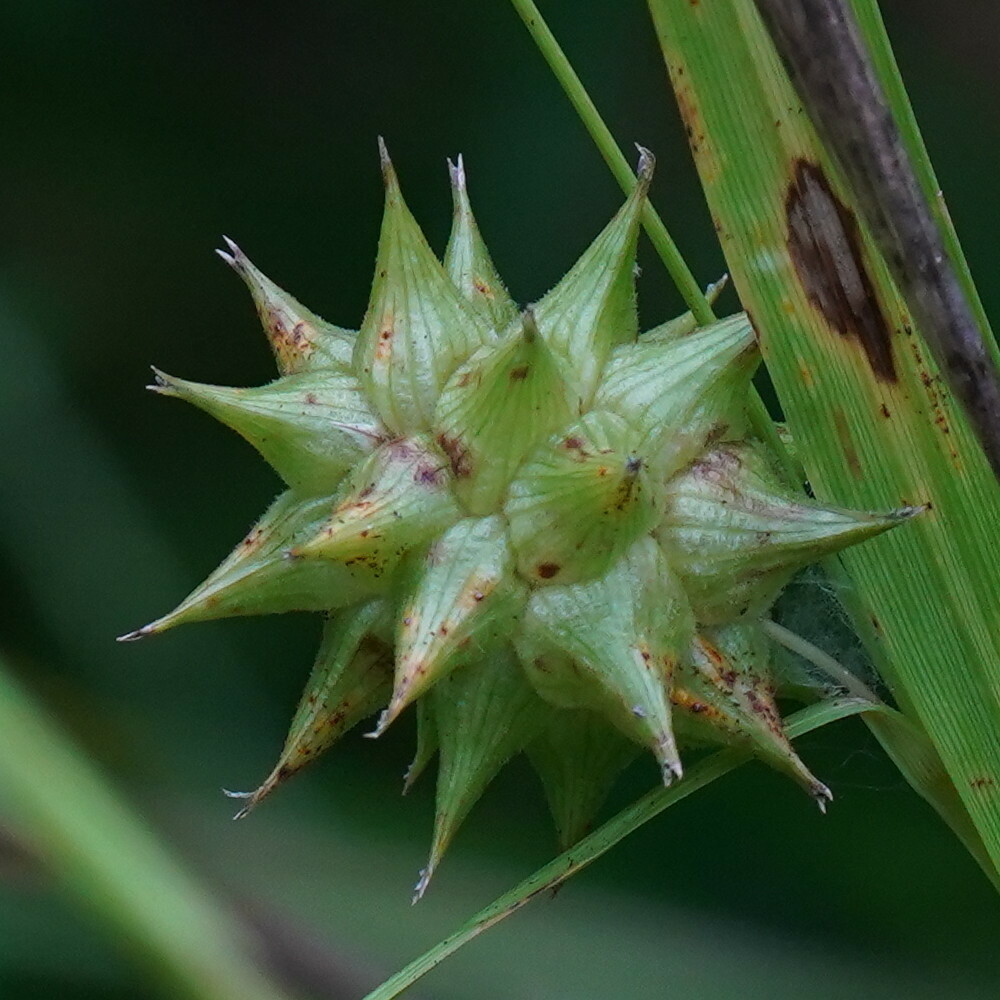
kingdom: Plantae
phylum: Tracheophyta
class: Liliopsida
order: Poales
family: Cyperaceae
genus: Carex
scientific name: Carex grayi
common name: Asa gray's sedge
